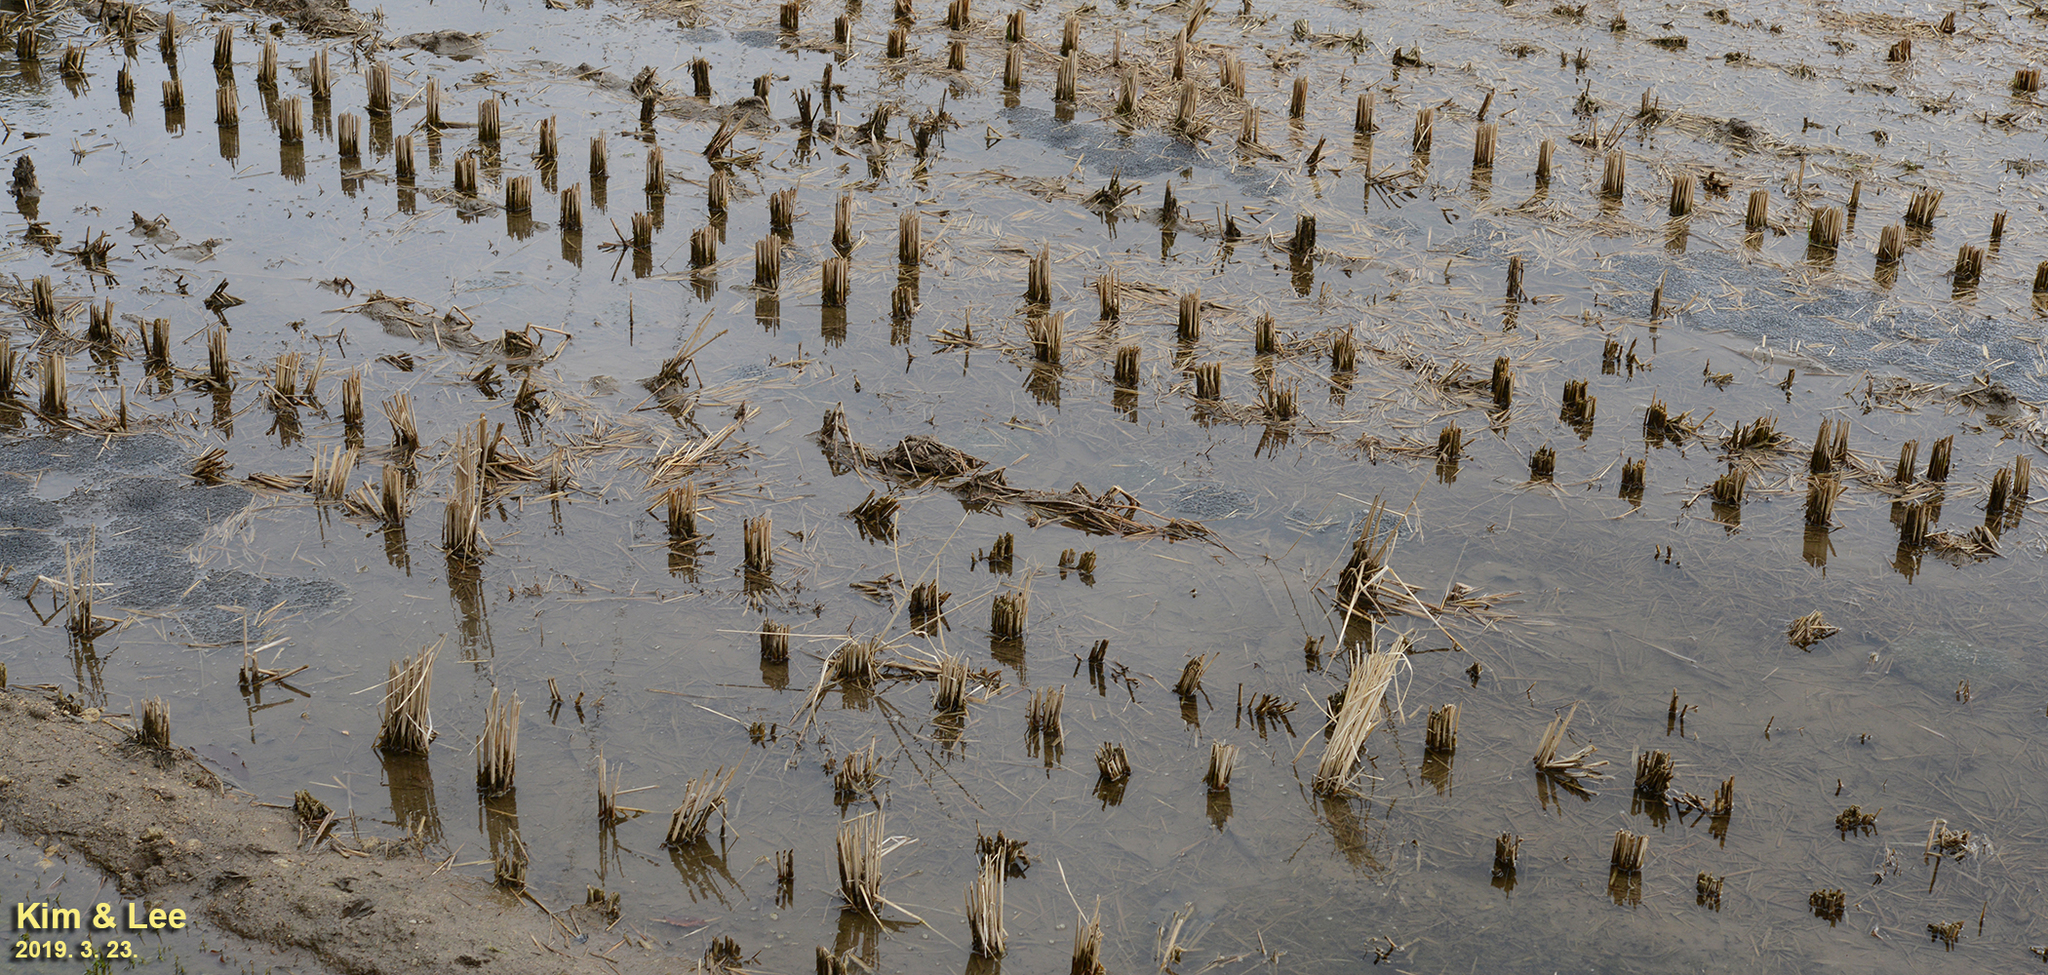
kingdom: Animalia
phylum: Chordata
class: Amphibia
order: Anura
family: Ranidae
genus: Rana
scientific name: Rana uenoi
